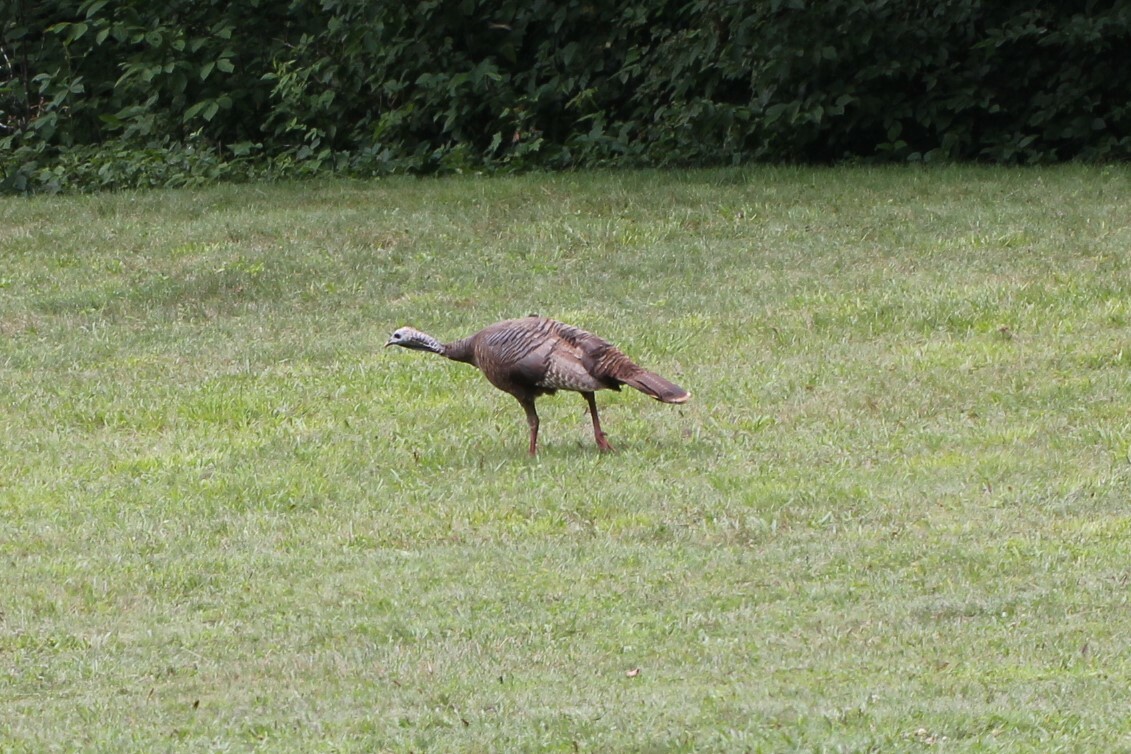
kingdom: Animalia
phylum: Chordata
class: Aves
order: Galliformes
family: Phasianidae
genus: Meleagris
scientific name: Meleagris gallopavo
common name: Wild turkey
